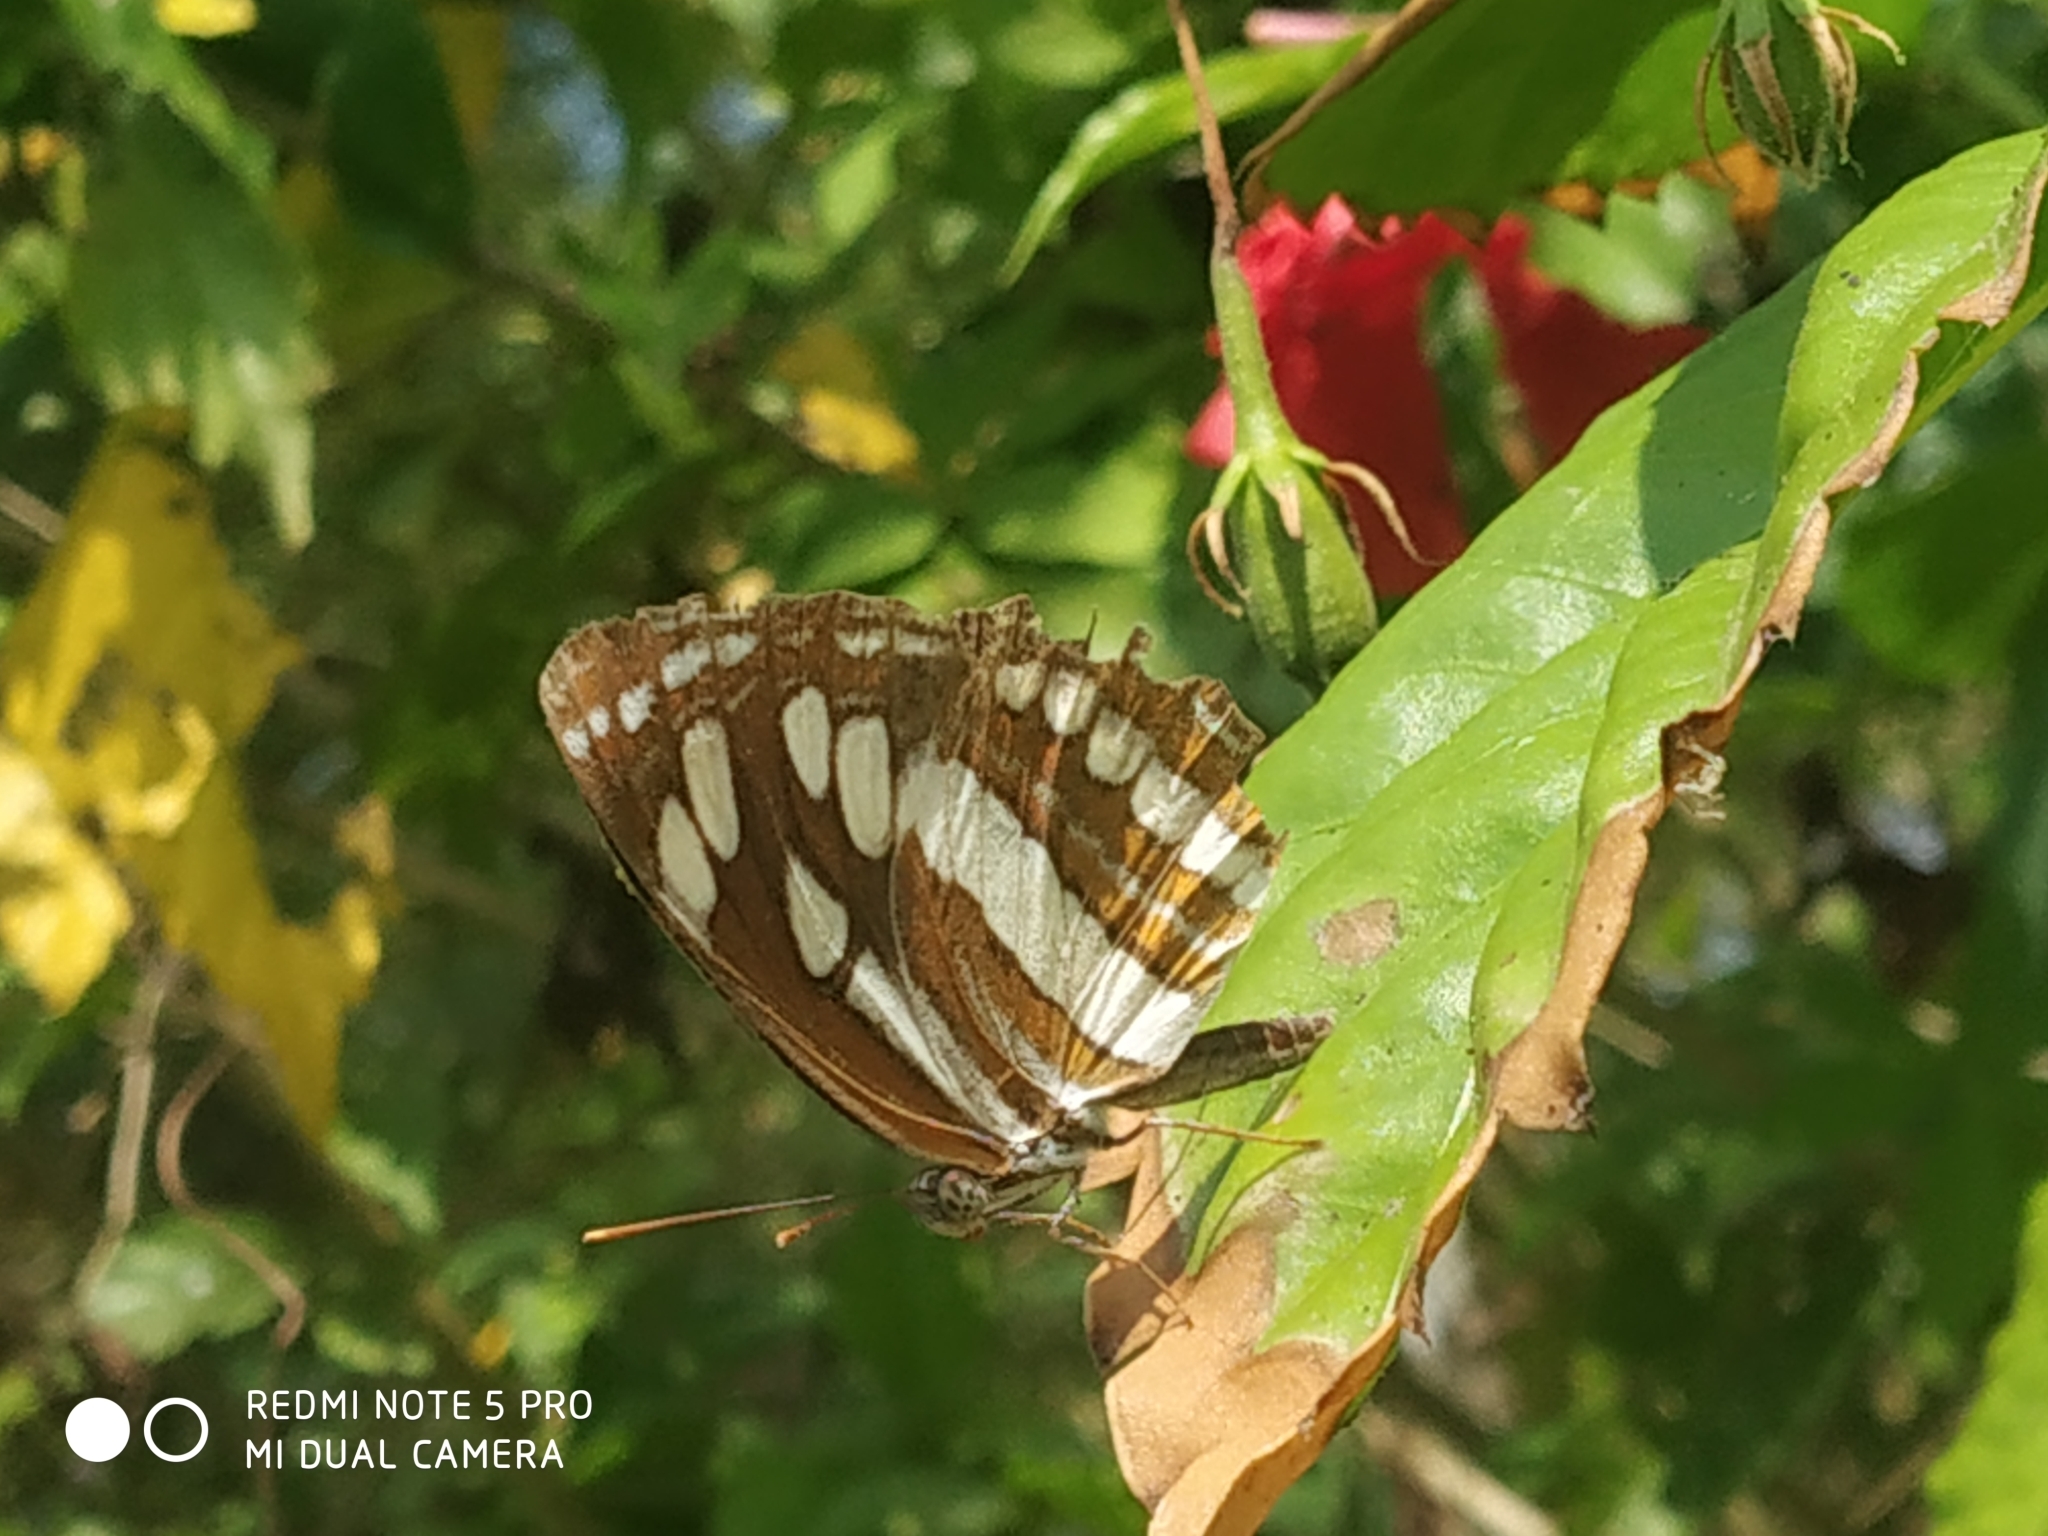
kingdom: Animalia
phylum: Arthropoda
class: Insecta
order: Lepidoptera
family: Nymphalidae
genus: Neptis
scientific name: Neptis hylas
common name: Common sailer
